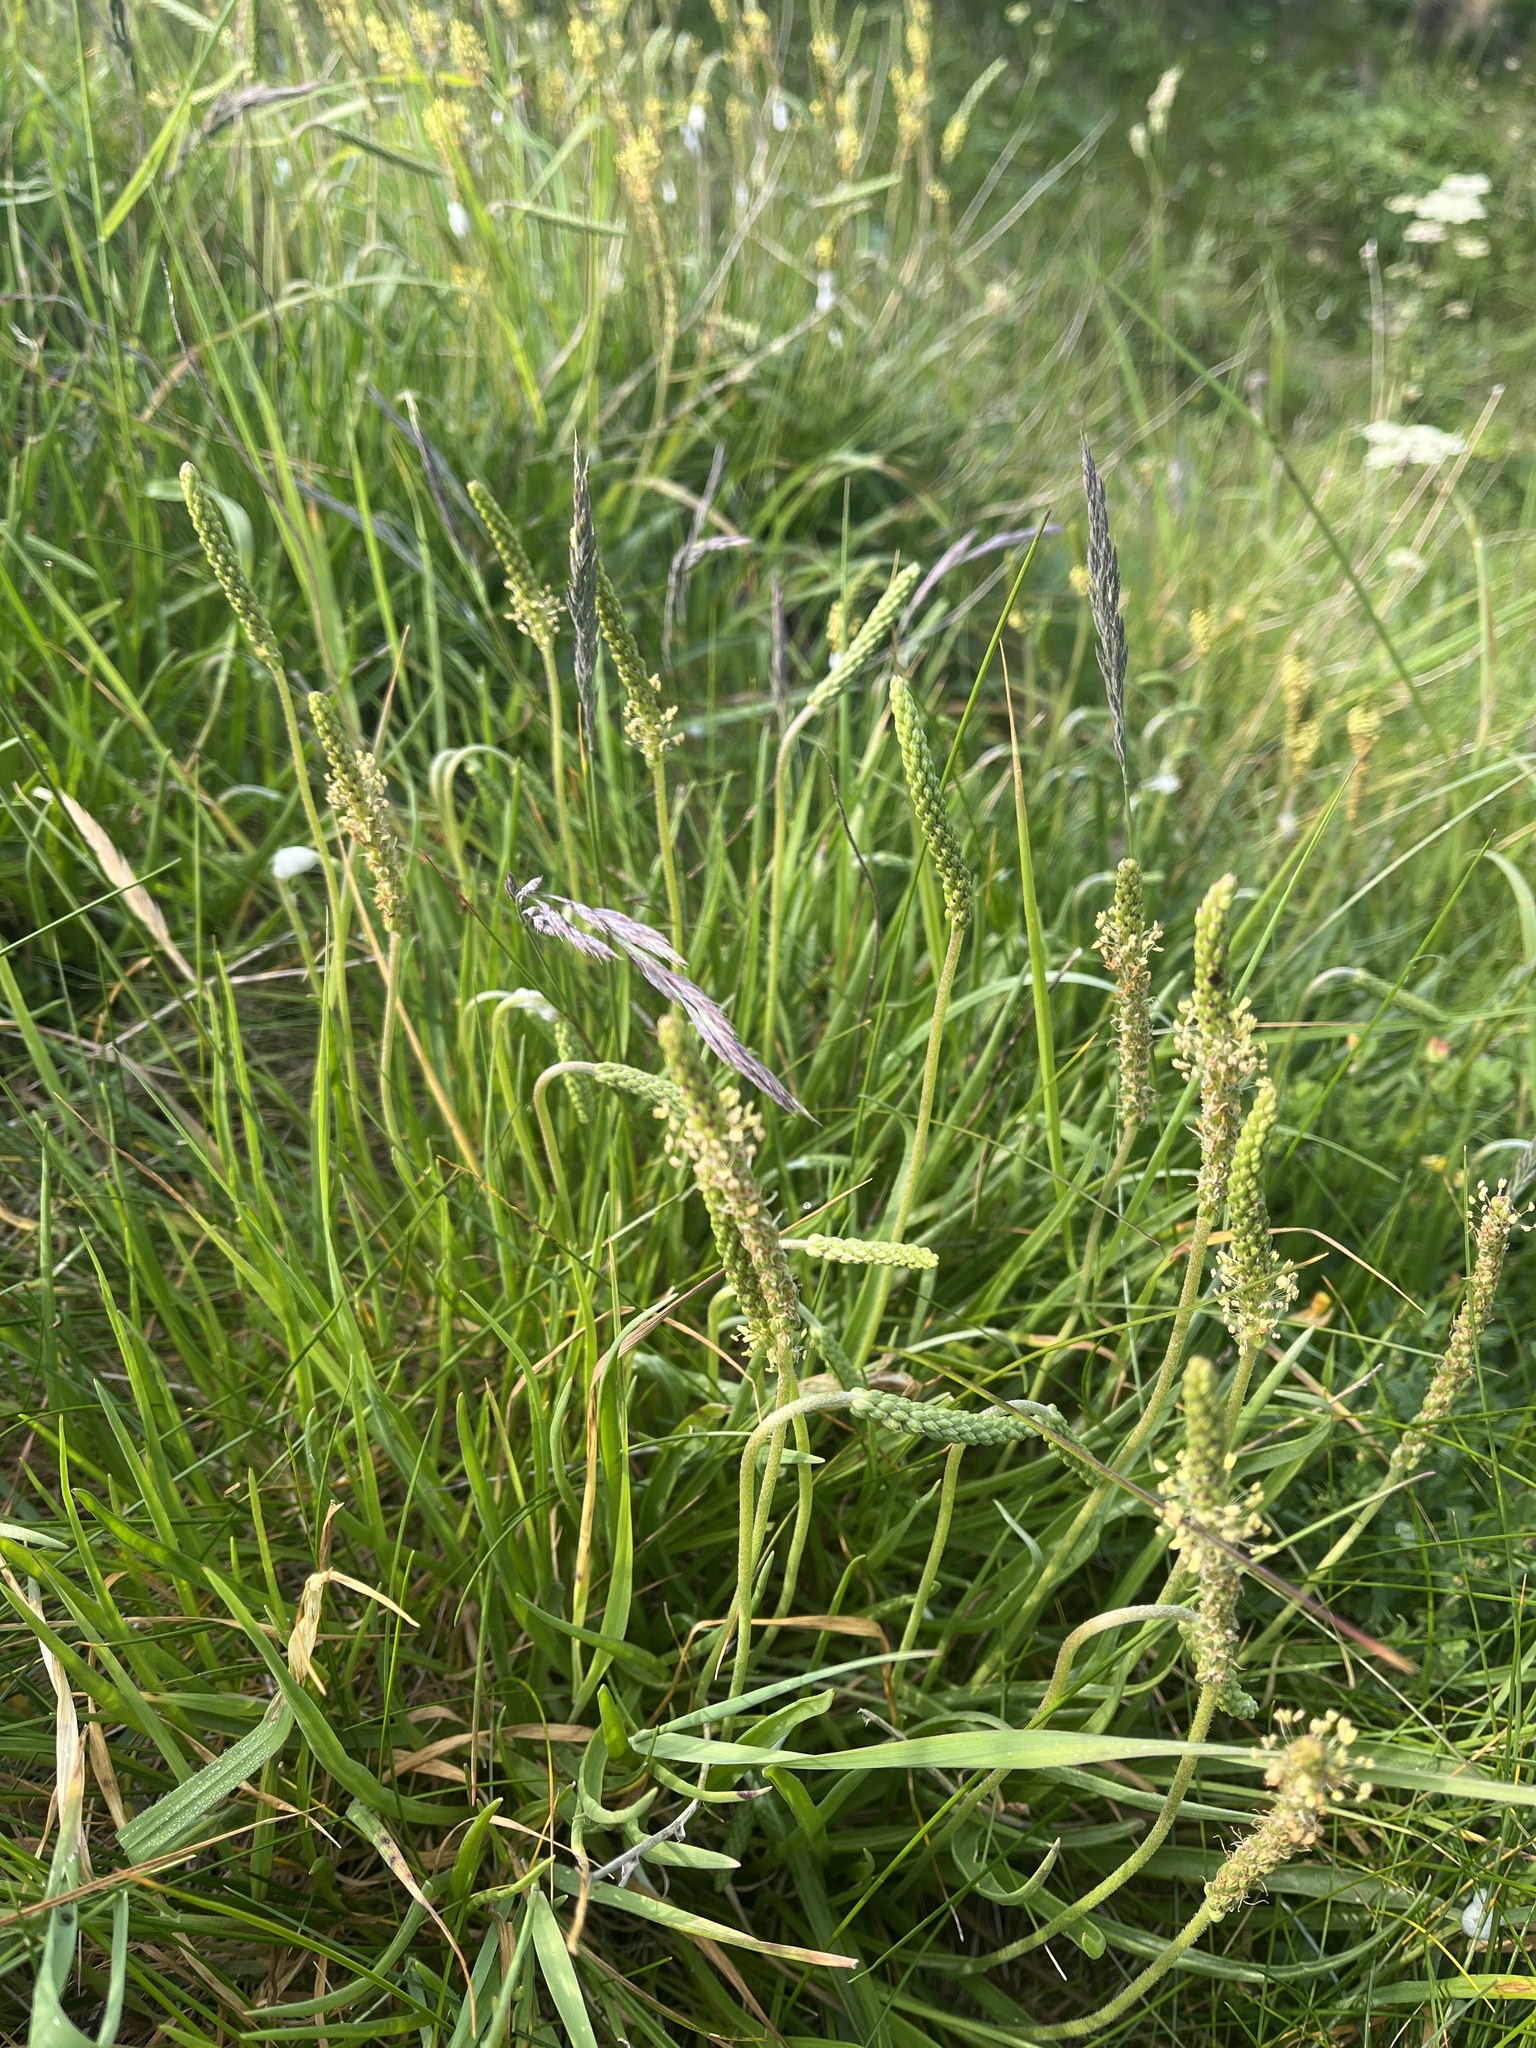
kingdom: Plantae
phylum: Tracheophyta
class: Magnoliopsida
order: Lamiales
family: Plantaginaceae
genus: Plantago
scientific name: Plantago maritima
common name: Sea plantain
